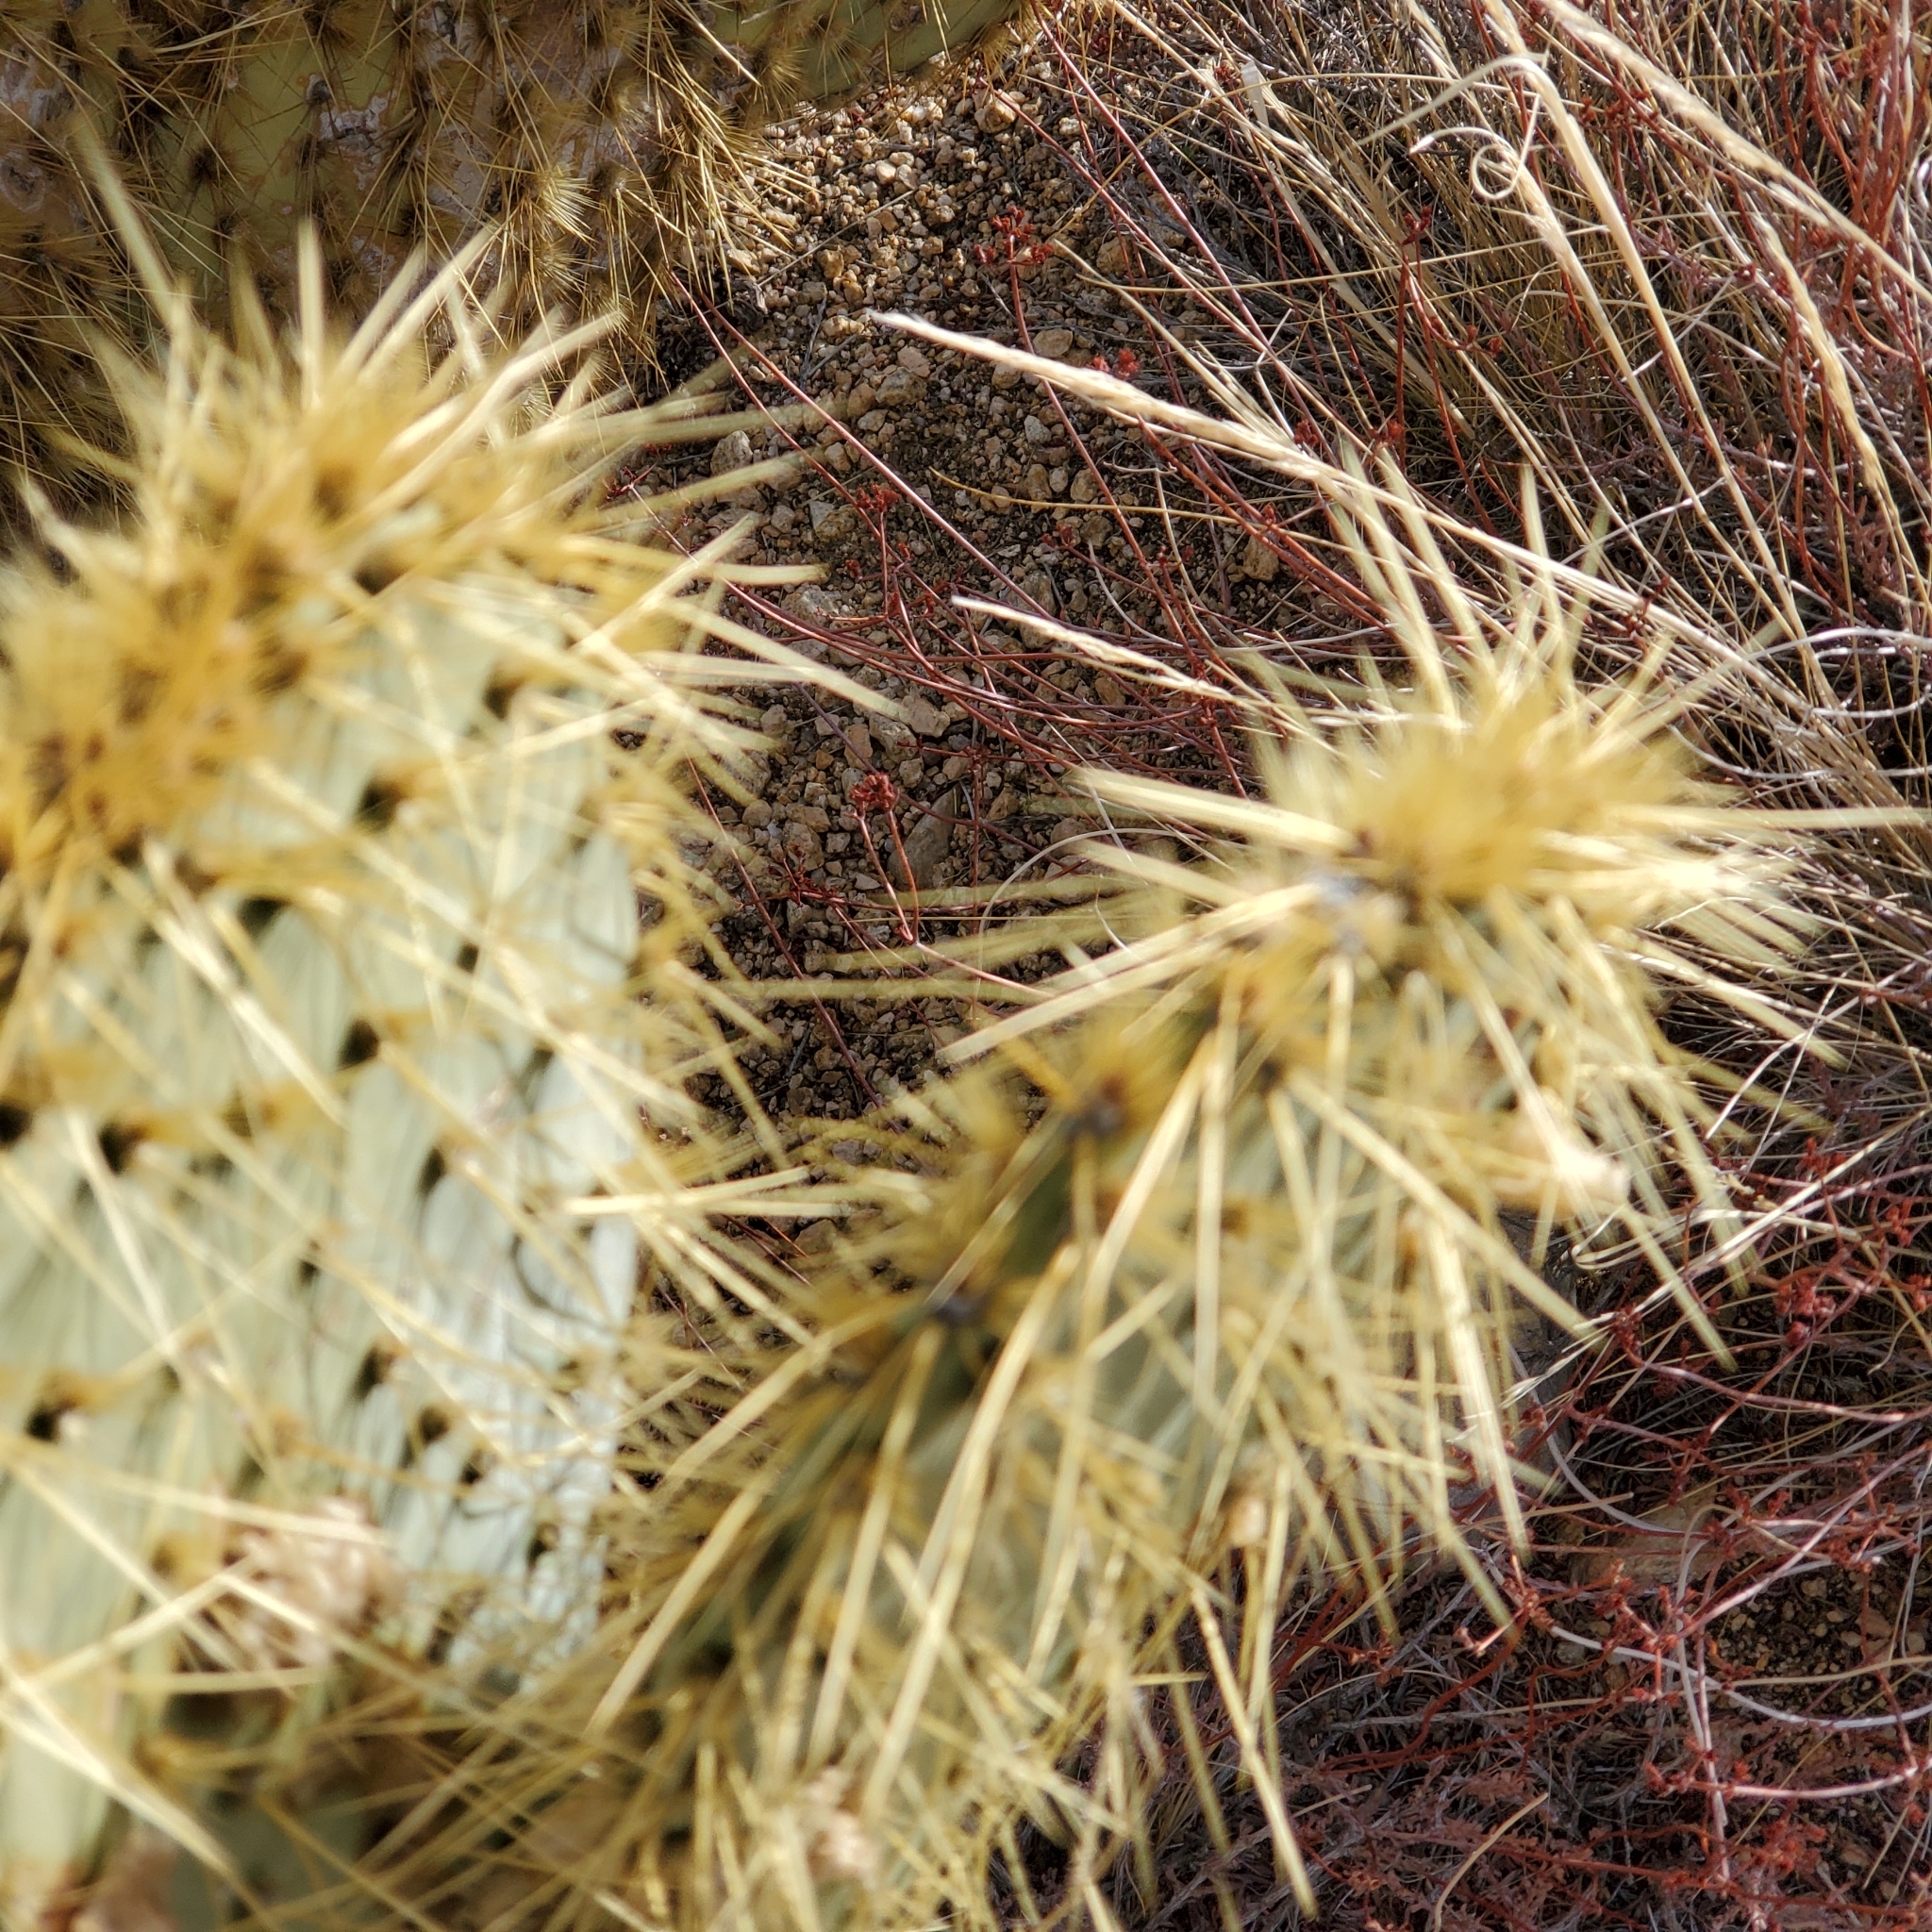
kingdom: Plantae
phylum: Tracheophyta
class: Magnoliopsida
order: Caryophyllales
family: Cactaceae
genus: Opuntia
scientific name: Opuntia chlorotica
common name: Dollar-joint prickly-pear
